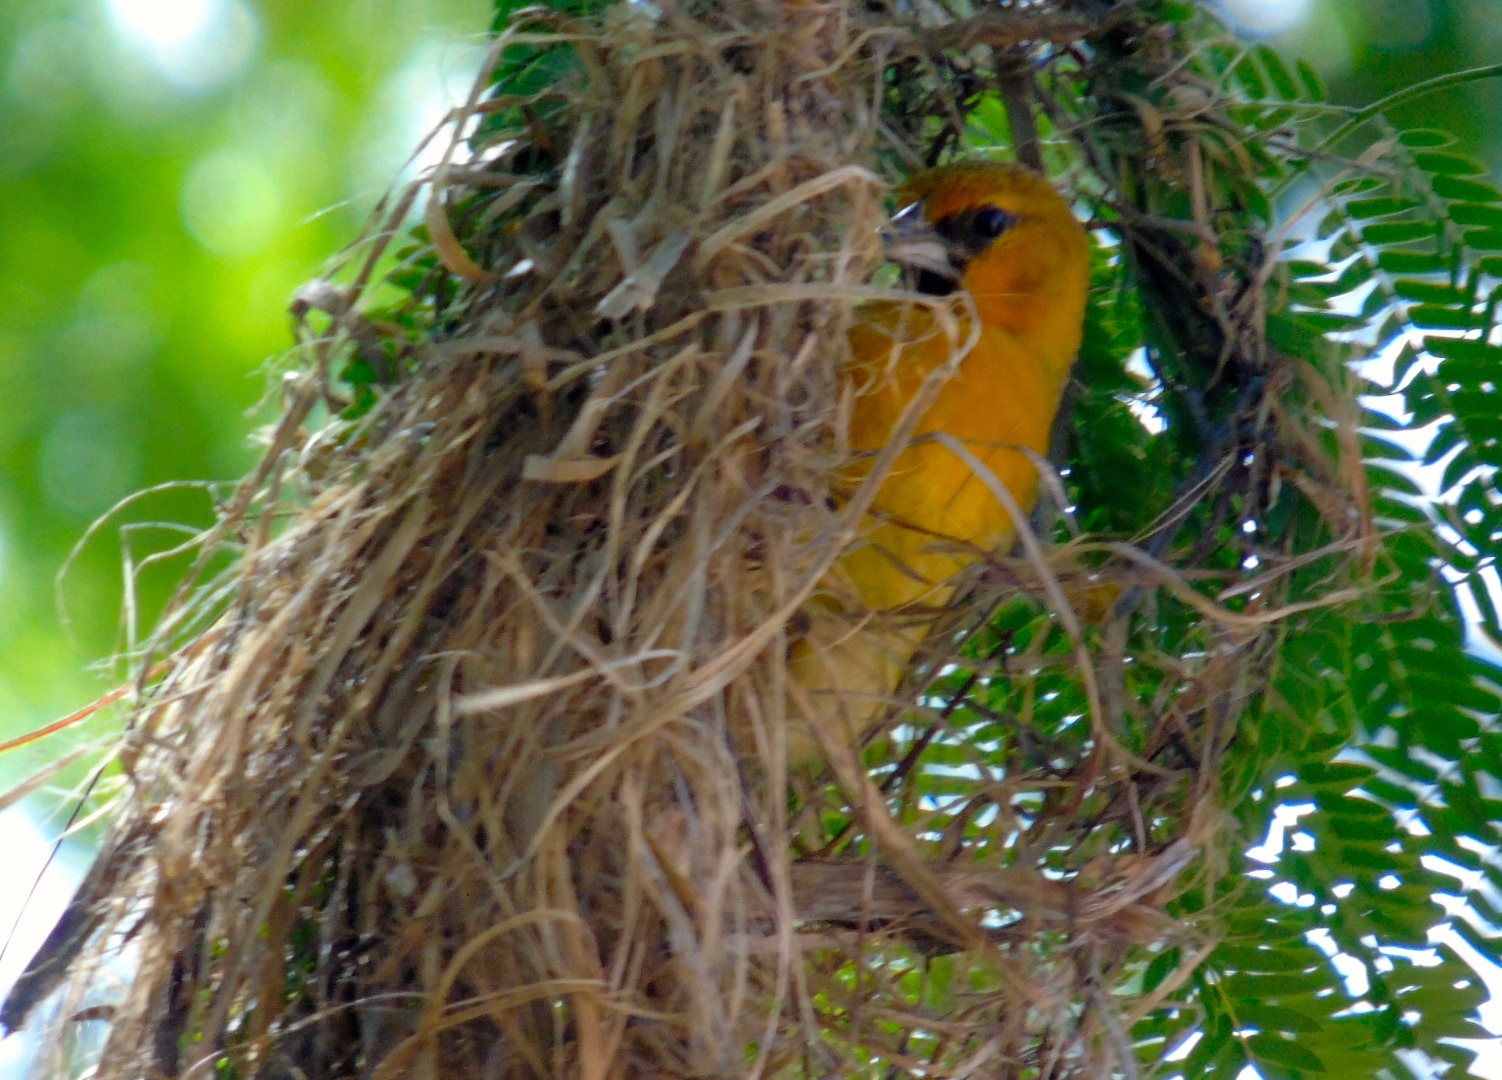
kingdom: Animalia
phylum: Chordata
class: Aves
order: Passeriformes
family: Icteridae
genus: Icterus
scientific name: Icterus pustulatus
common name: Streak-backed oriole
